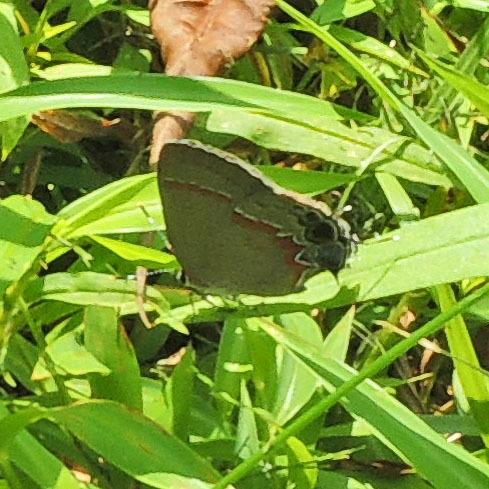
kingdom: Animalia
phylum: Arthropoda
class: Insecta
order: Lepidoptera
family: Lycaenidae
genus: Calycopis
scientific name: Calycopis cecrops
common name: Red-banded hairstreak
